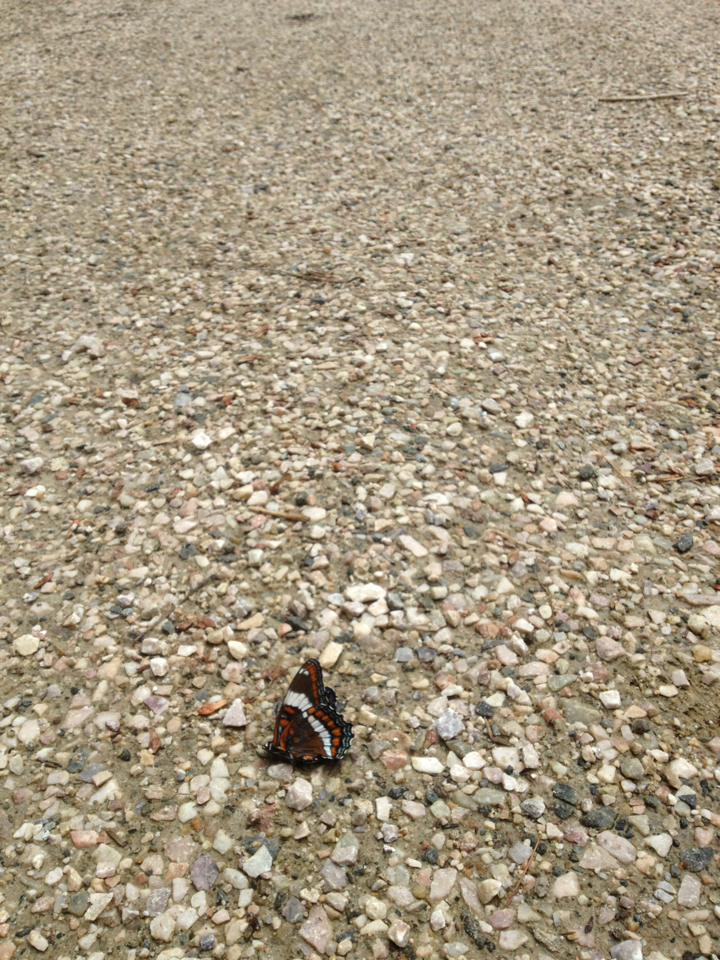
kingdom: Animalia
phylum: Arthropoda
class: Insecta
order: Lepidoptera
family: Nymphalidae
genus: Limenitis
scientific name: Limenitis arthemis
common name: Red-spotted admiral
